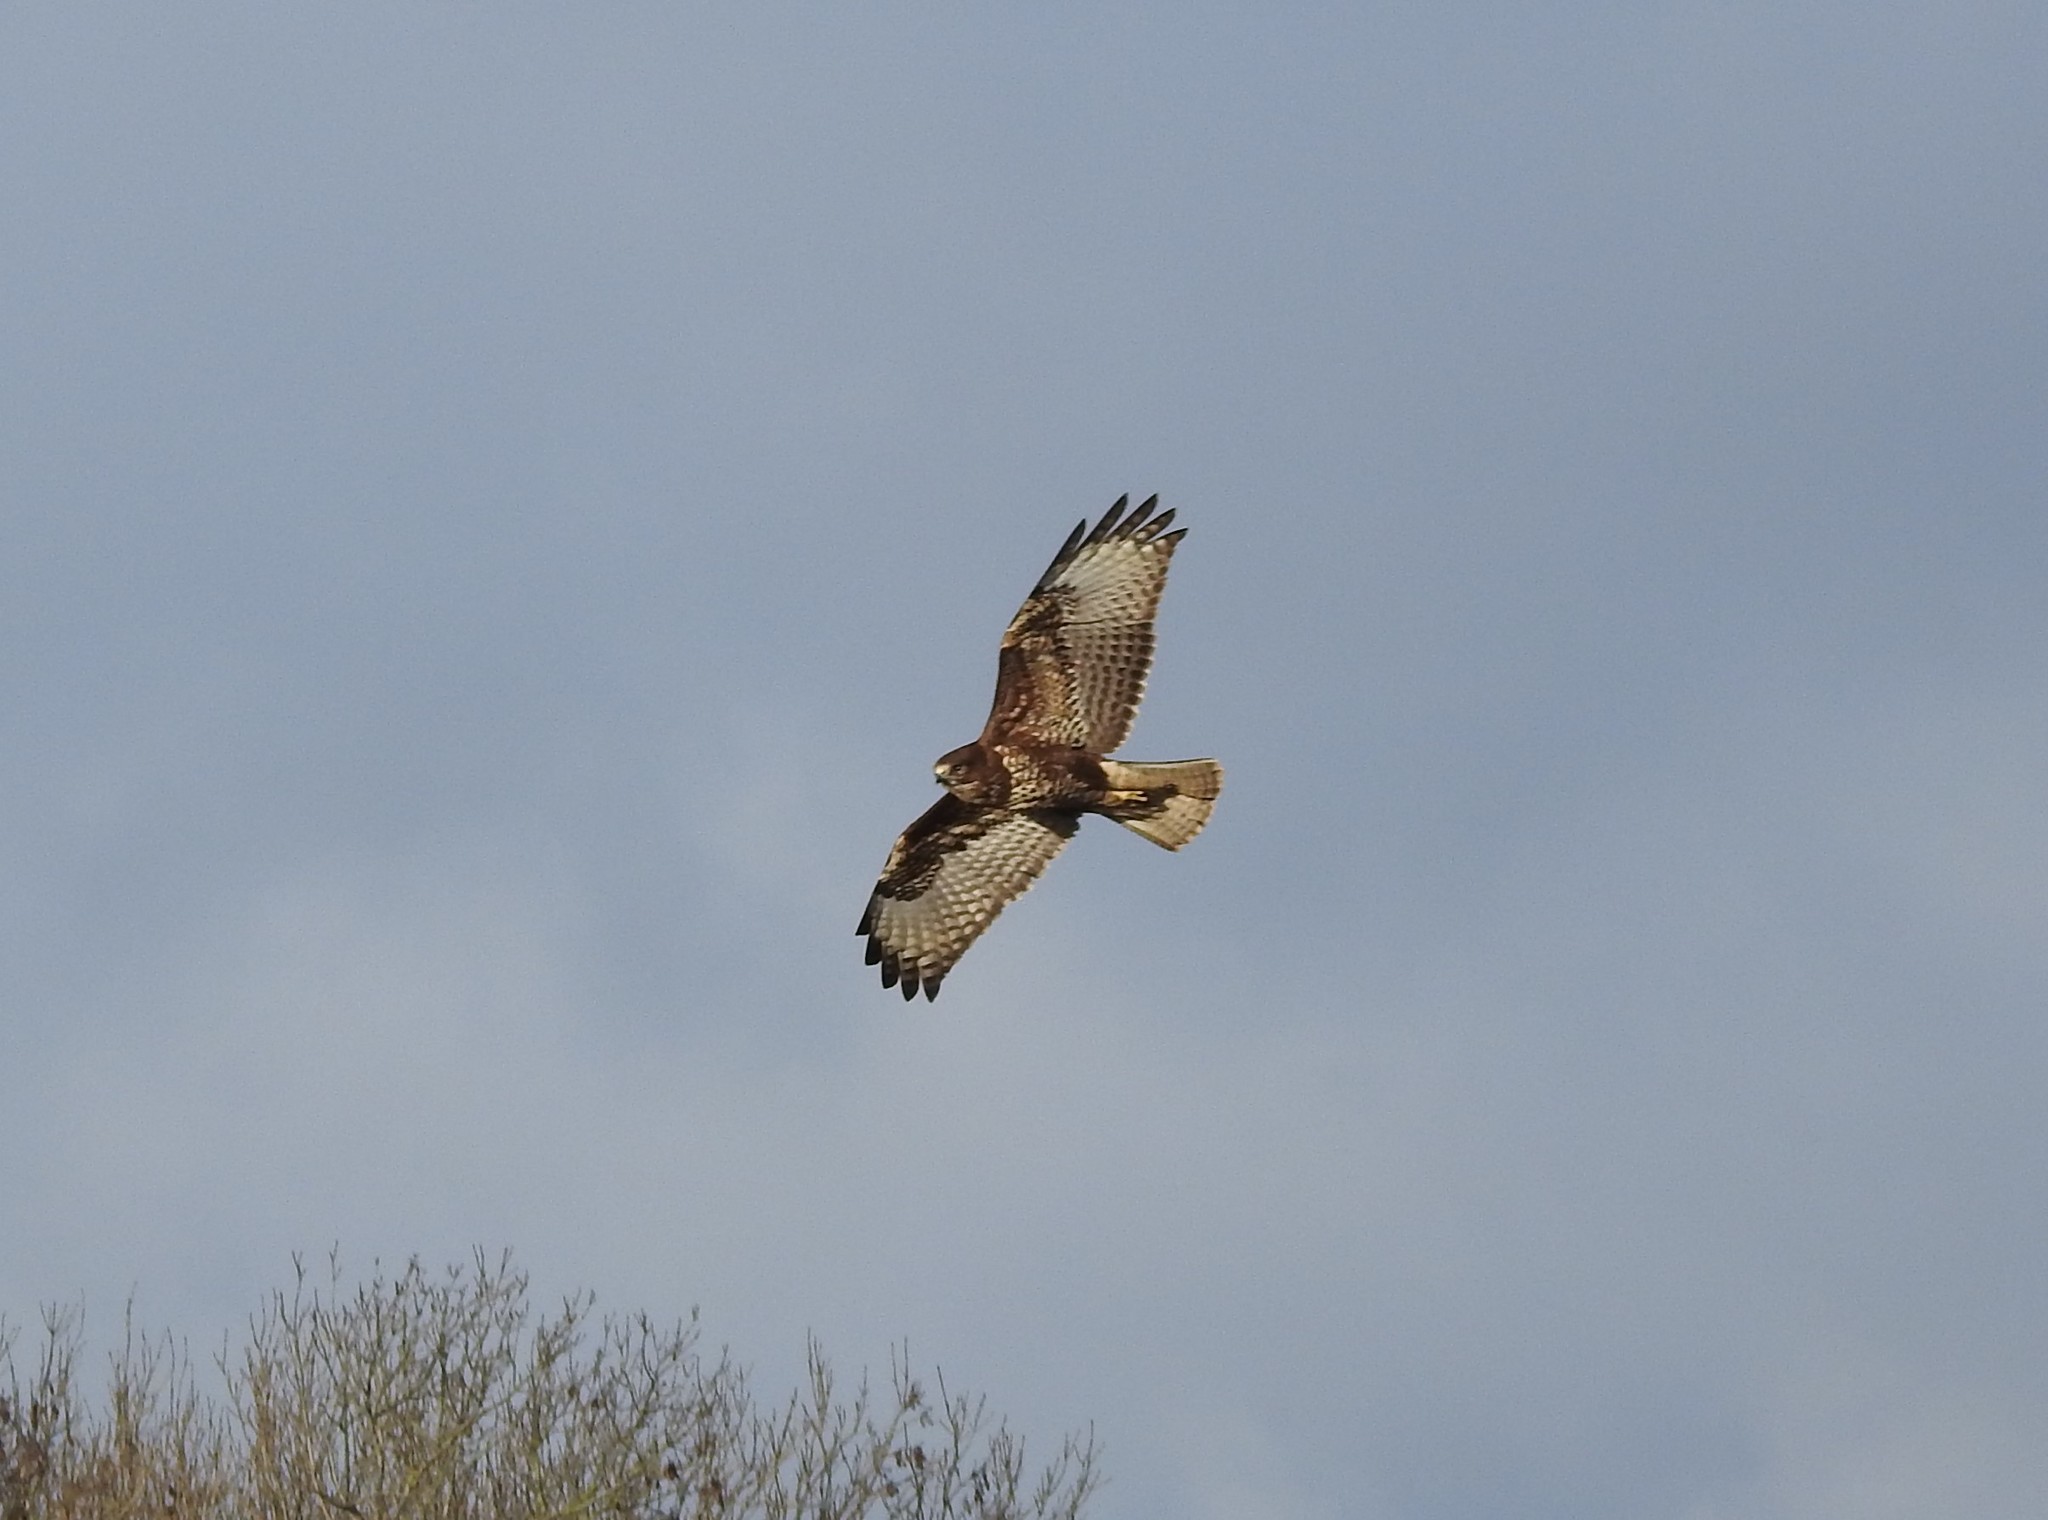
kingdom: Animalia
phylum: Chordata
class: Aves
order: Accipitriformes
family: Accipitridae
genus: Buteo
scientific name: Buteo buteo
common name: Common buzzard
